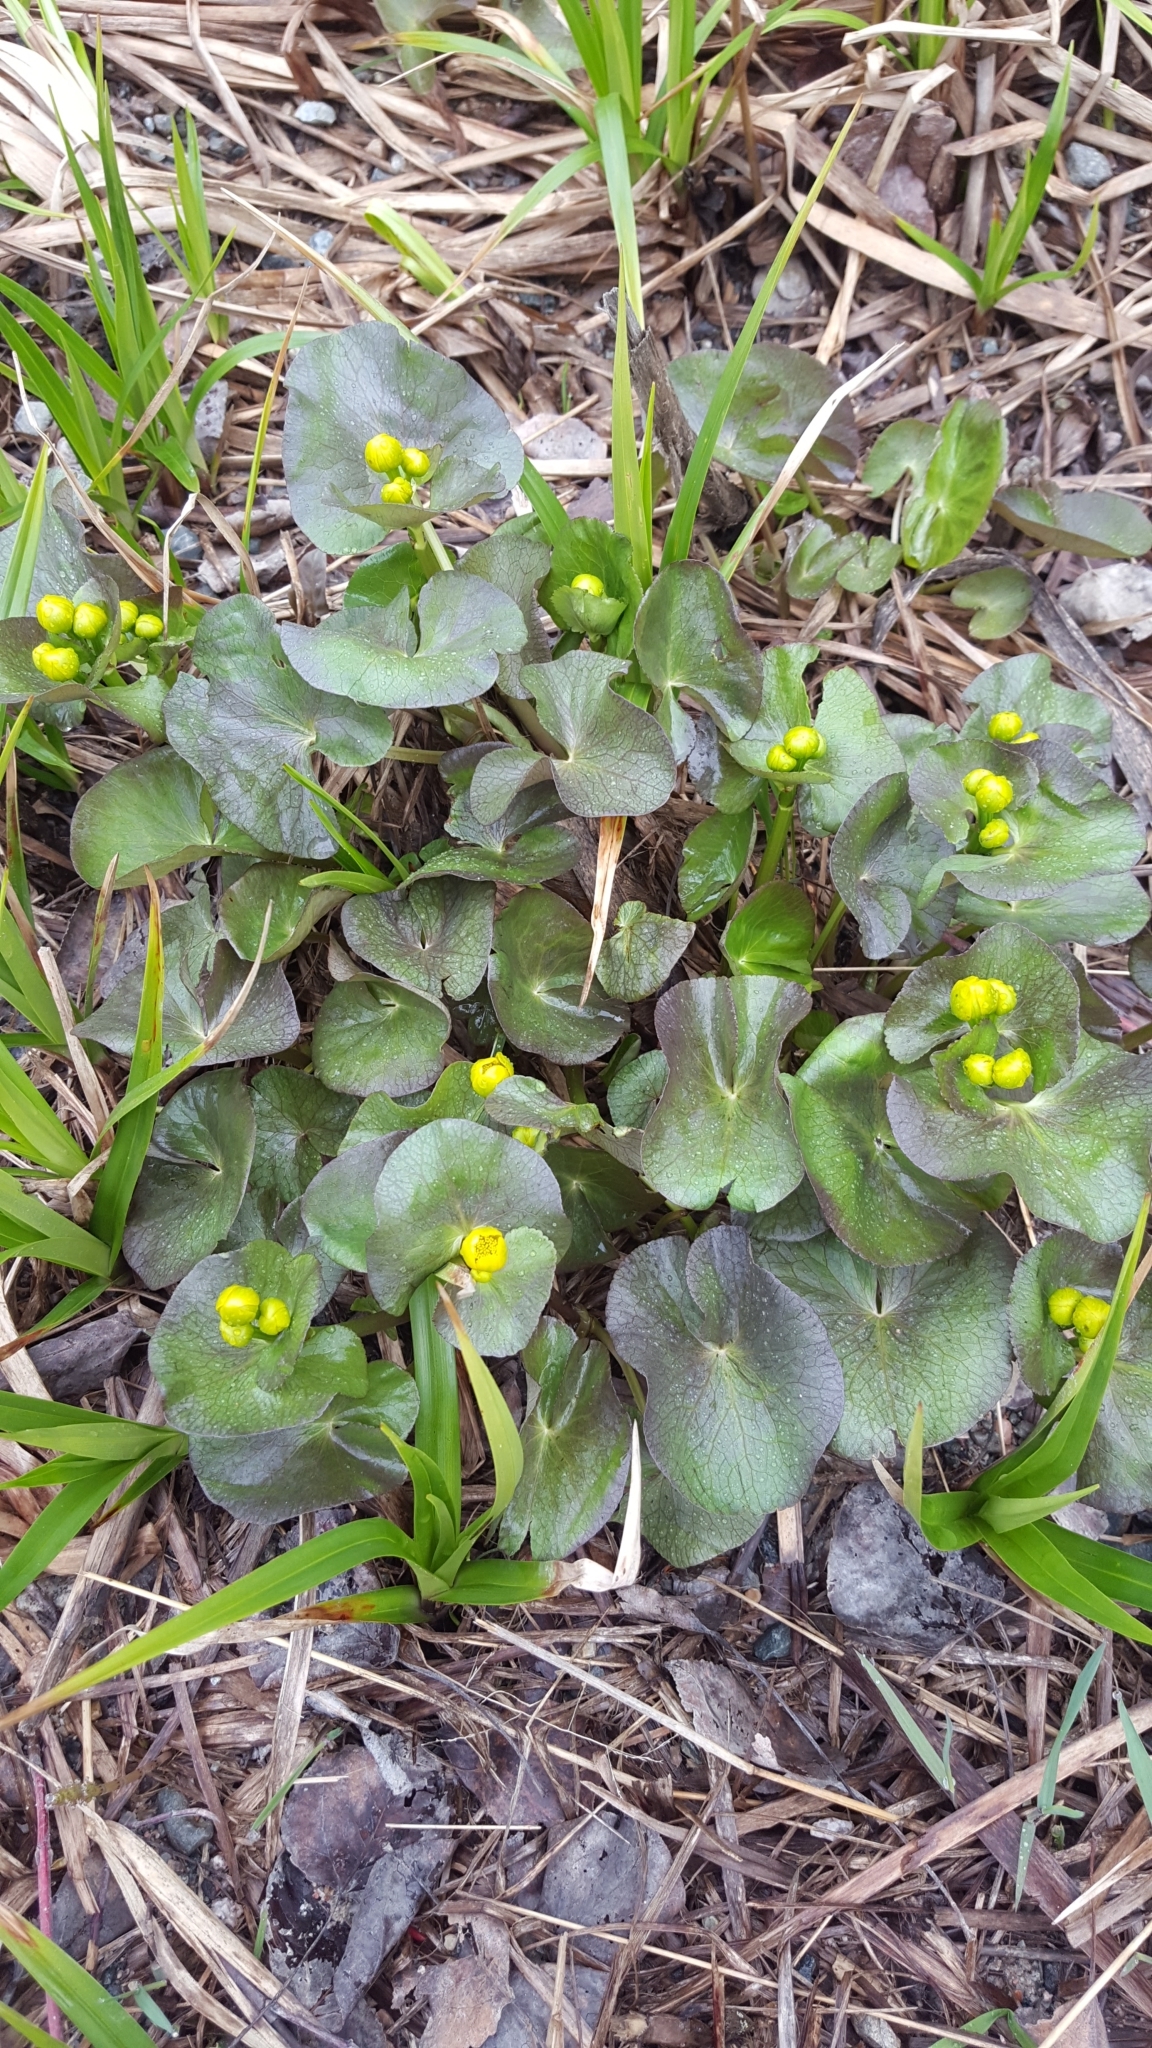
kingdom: Plantae
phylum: Tracheophyta
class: Magnoliopsida
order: Ranunculales
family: Ranunculaceae
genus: Caltha
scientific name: Caltha palustris
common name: Marsh marigold
